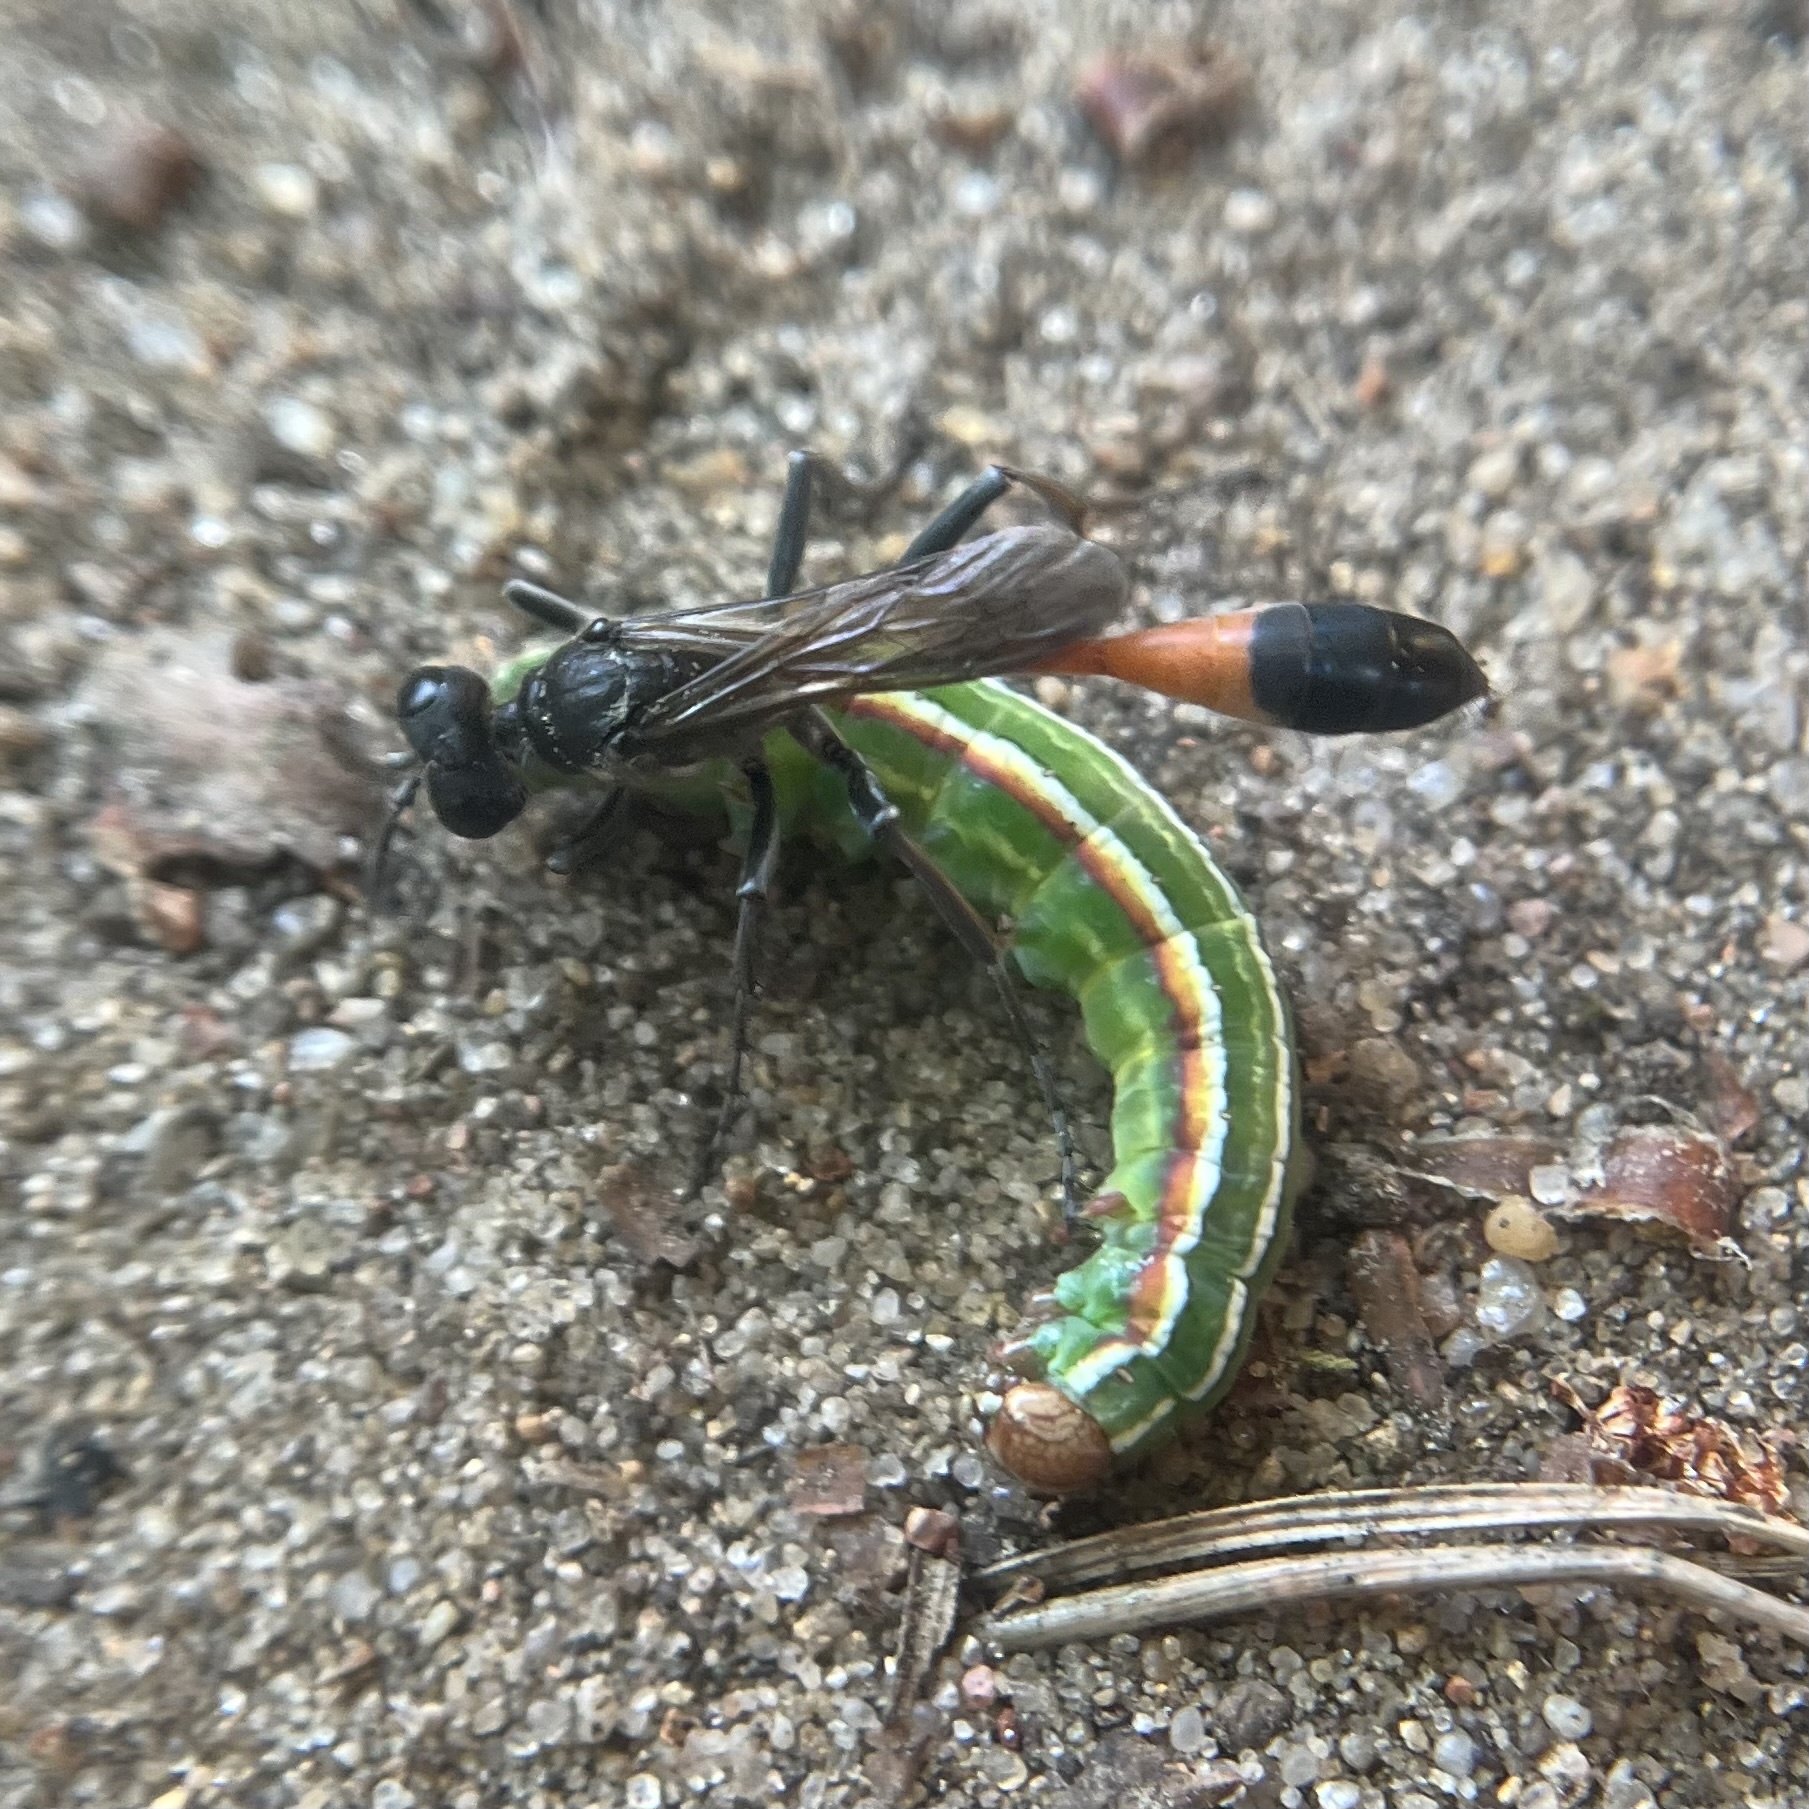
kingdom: Animalia
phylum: Arthropoda
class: Insecta
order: Lepidoptera
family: Noctuidae
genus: Panolis
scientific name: Panolis flammea
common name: Pine beauty
